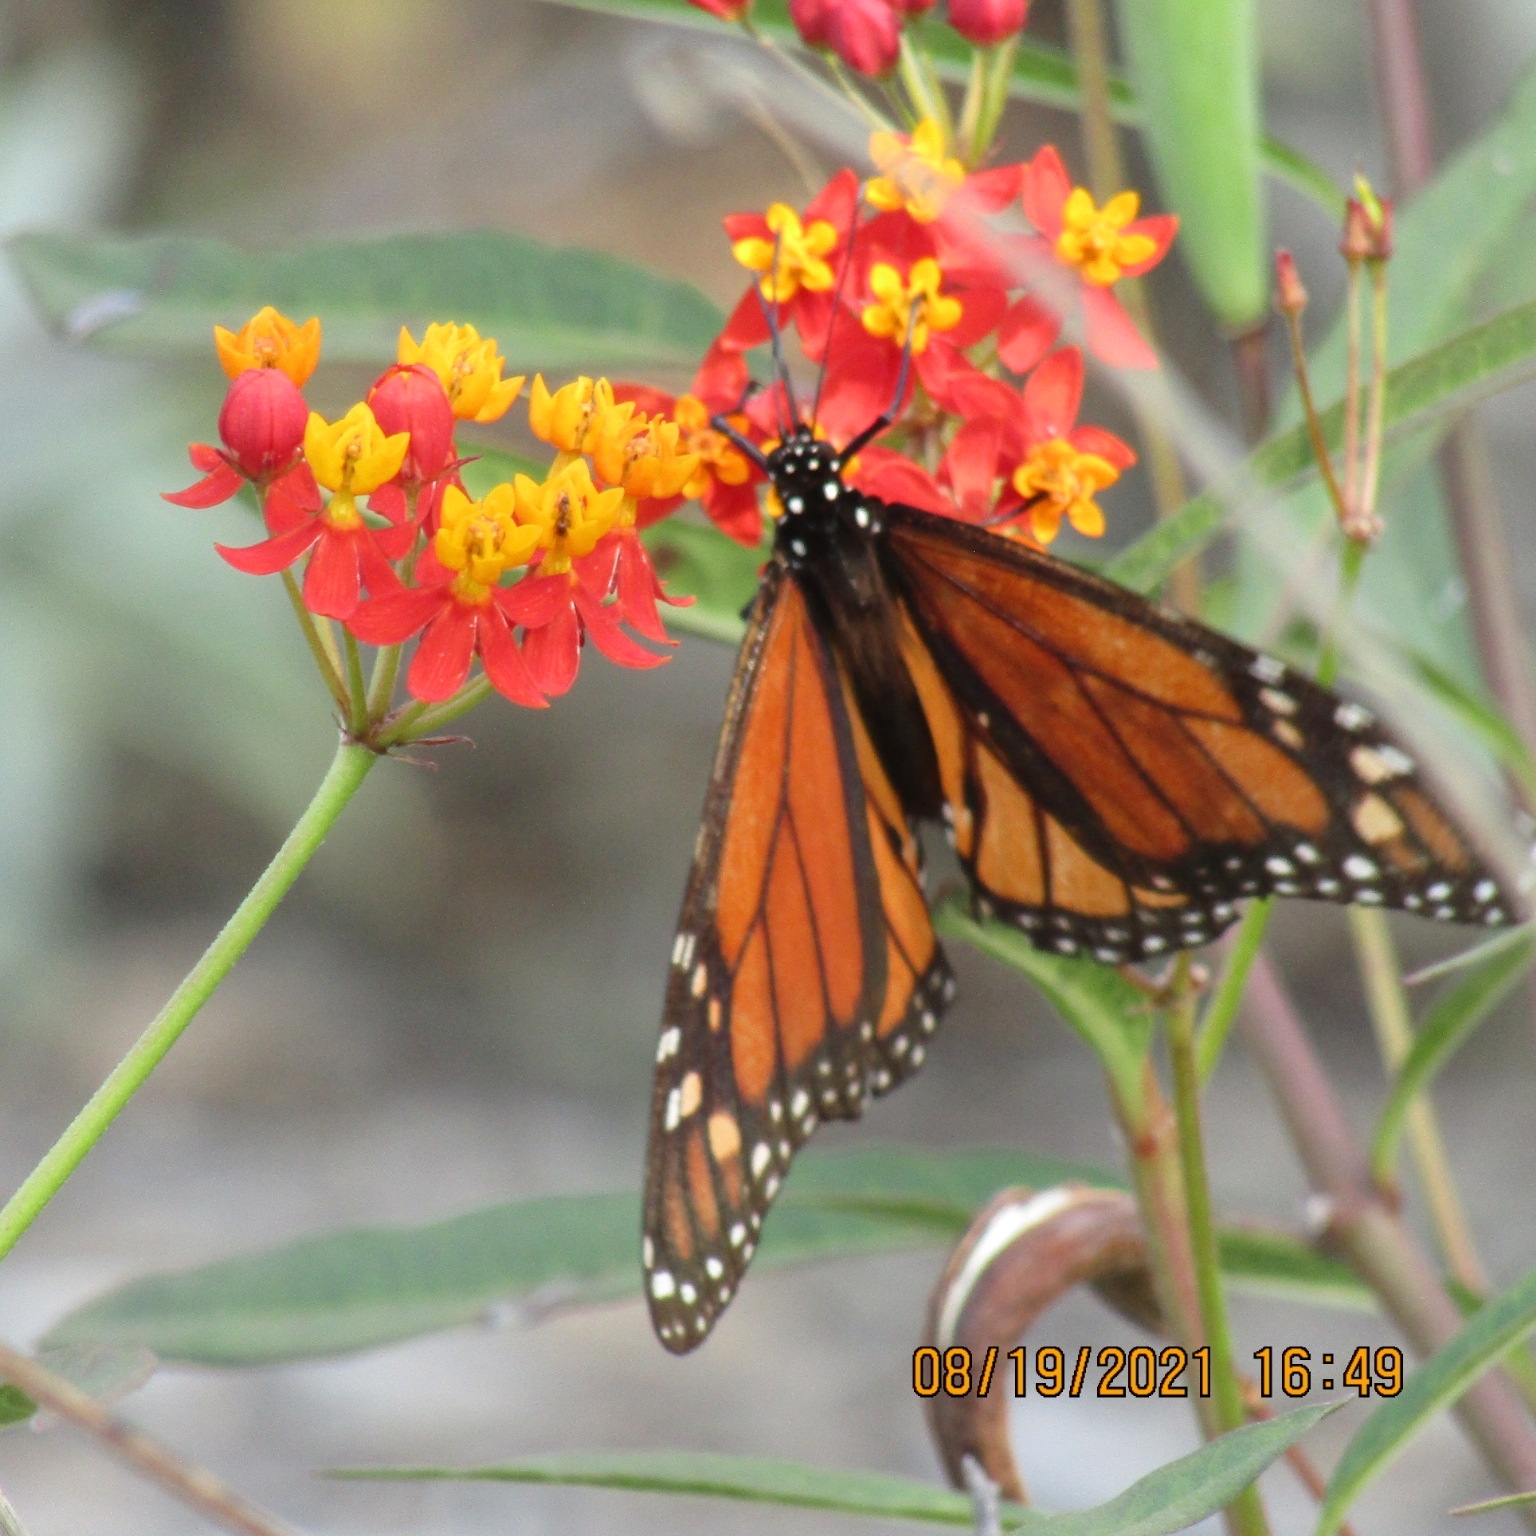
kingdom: Animalia
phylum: Arthropoda
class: Insecta
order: Lepidoptera
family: Nymphalidae
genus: Danaus
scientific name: Danaus plexippus
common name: Monarch
